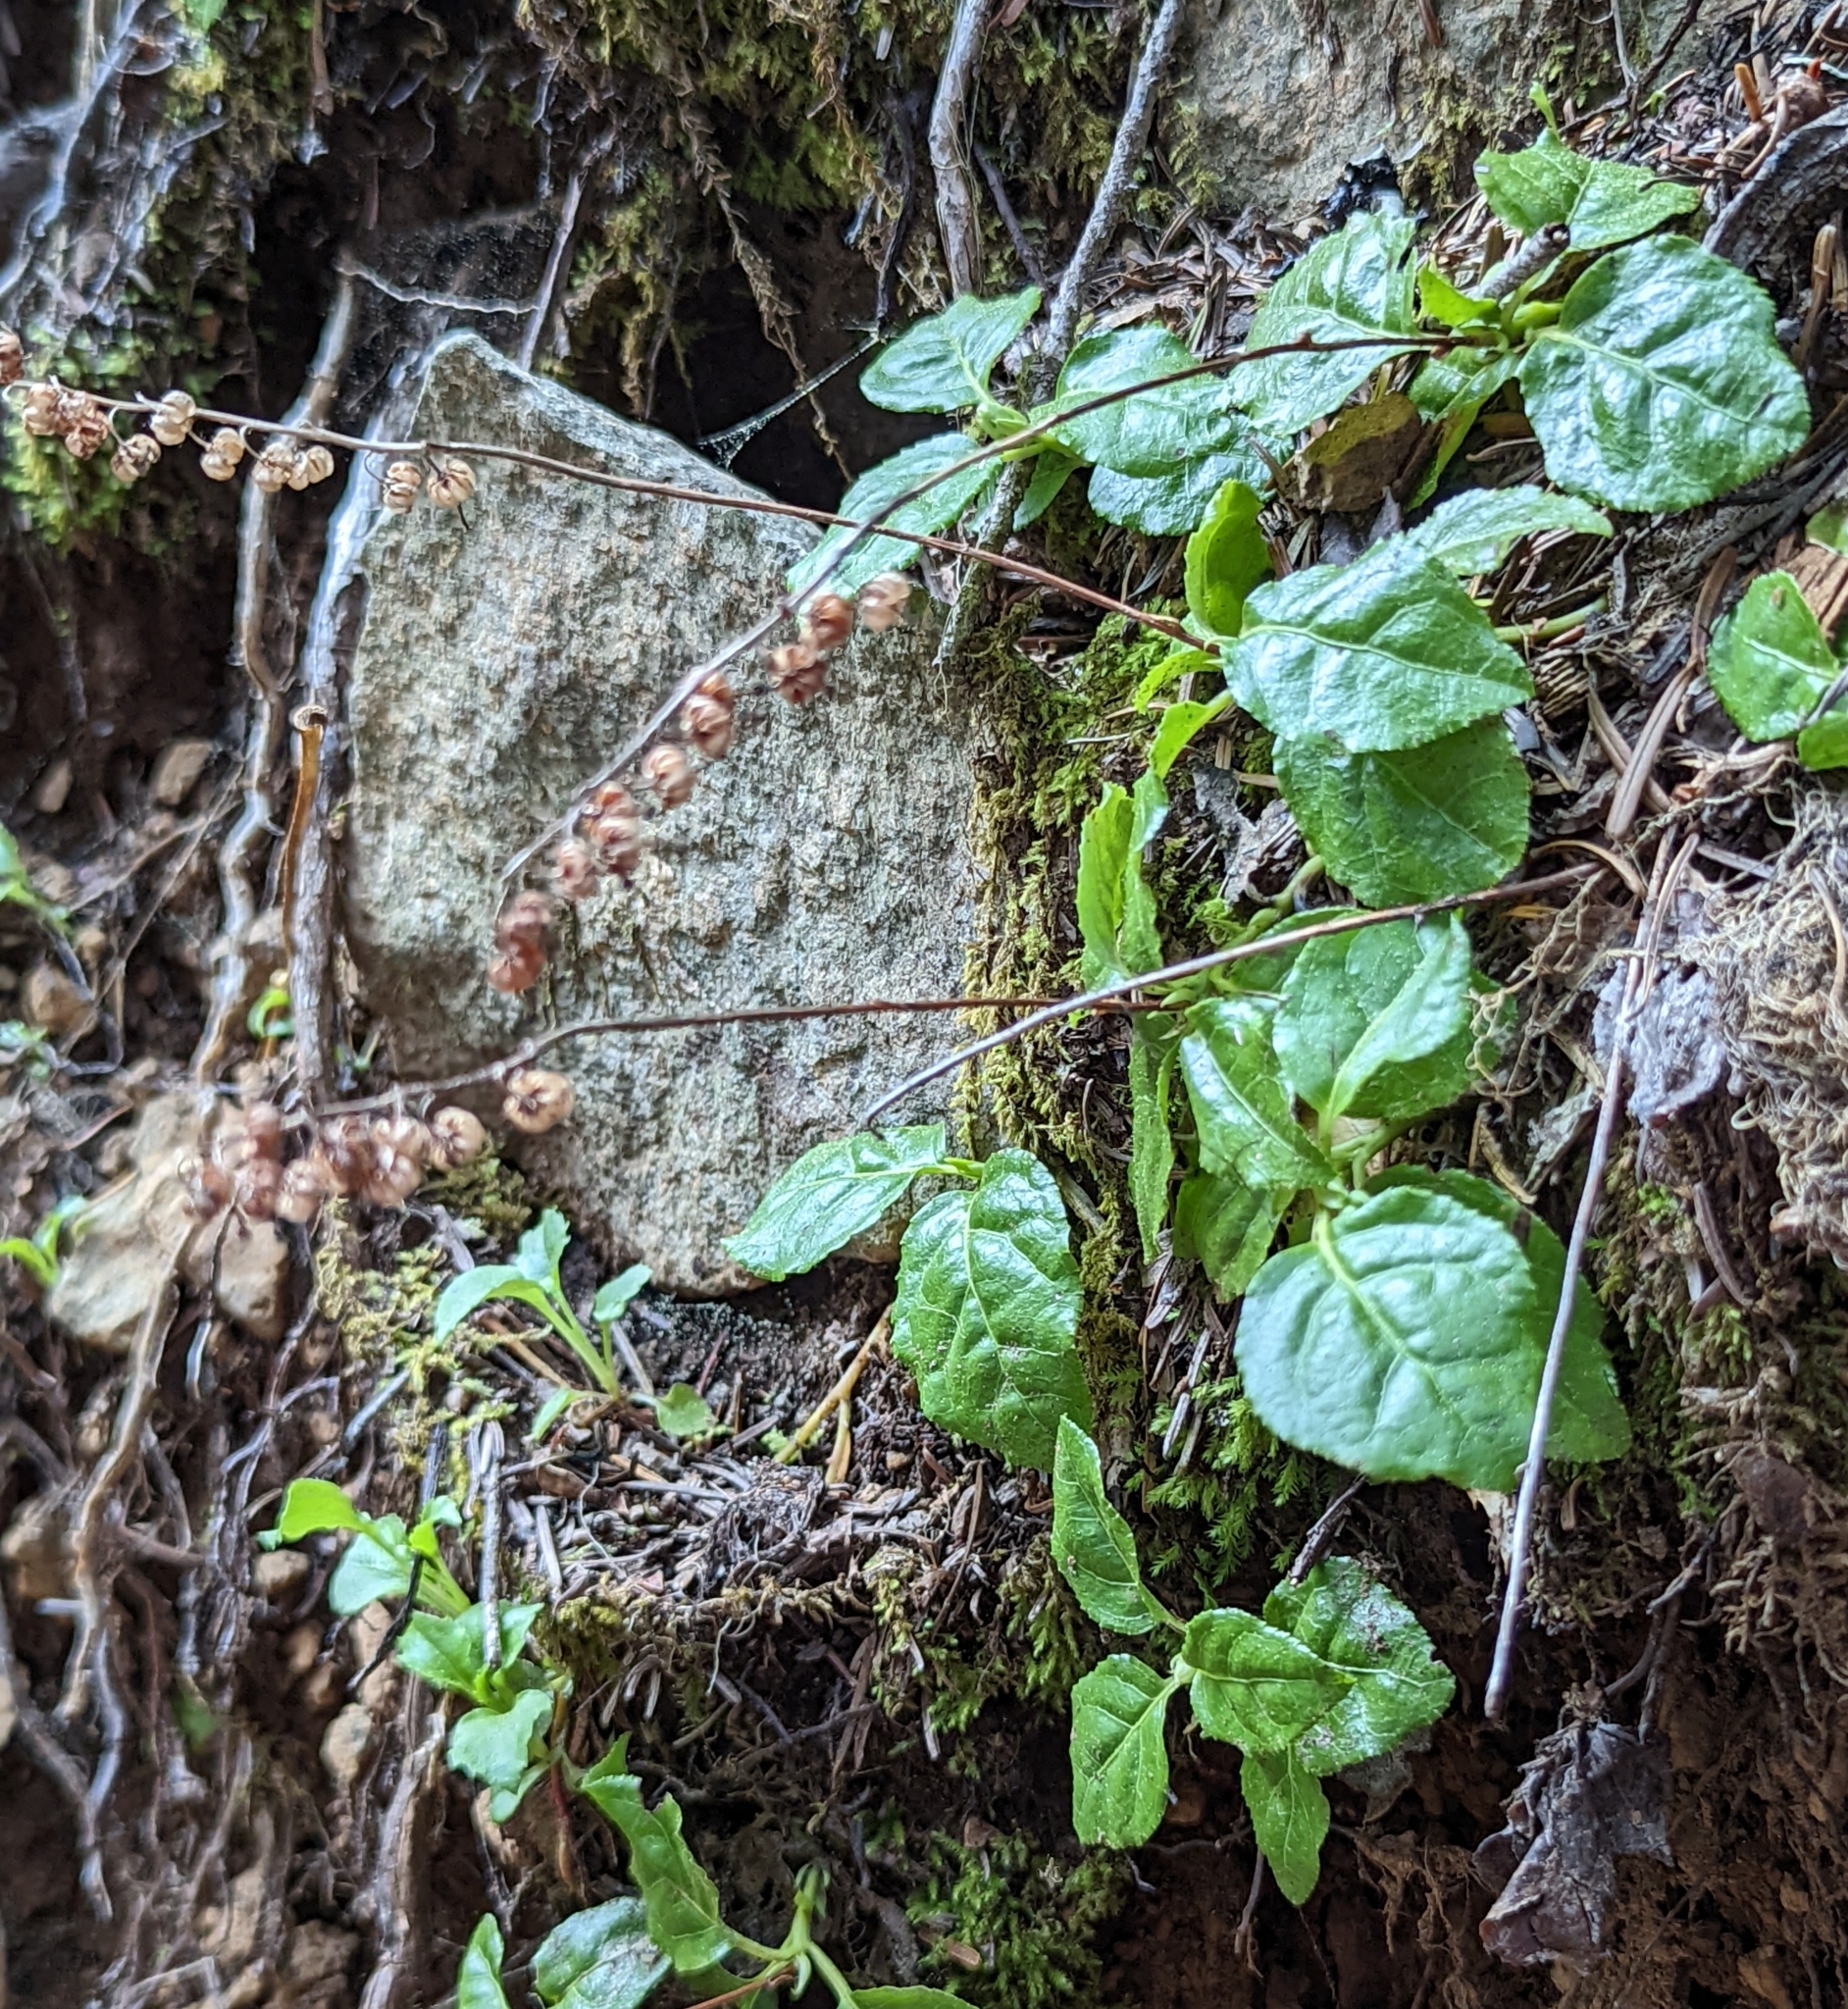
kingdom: Plantae
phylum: Tracheophyta
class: Magnoliopsida
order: Ericales
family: Ericaceae
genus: Orthilia
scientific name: Orthilia secunda
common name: One-sided orthilia
